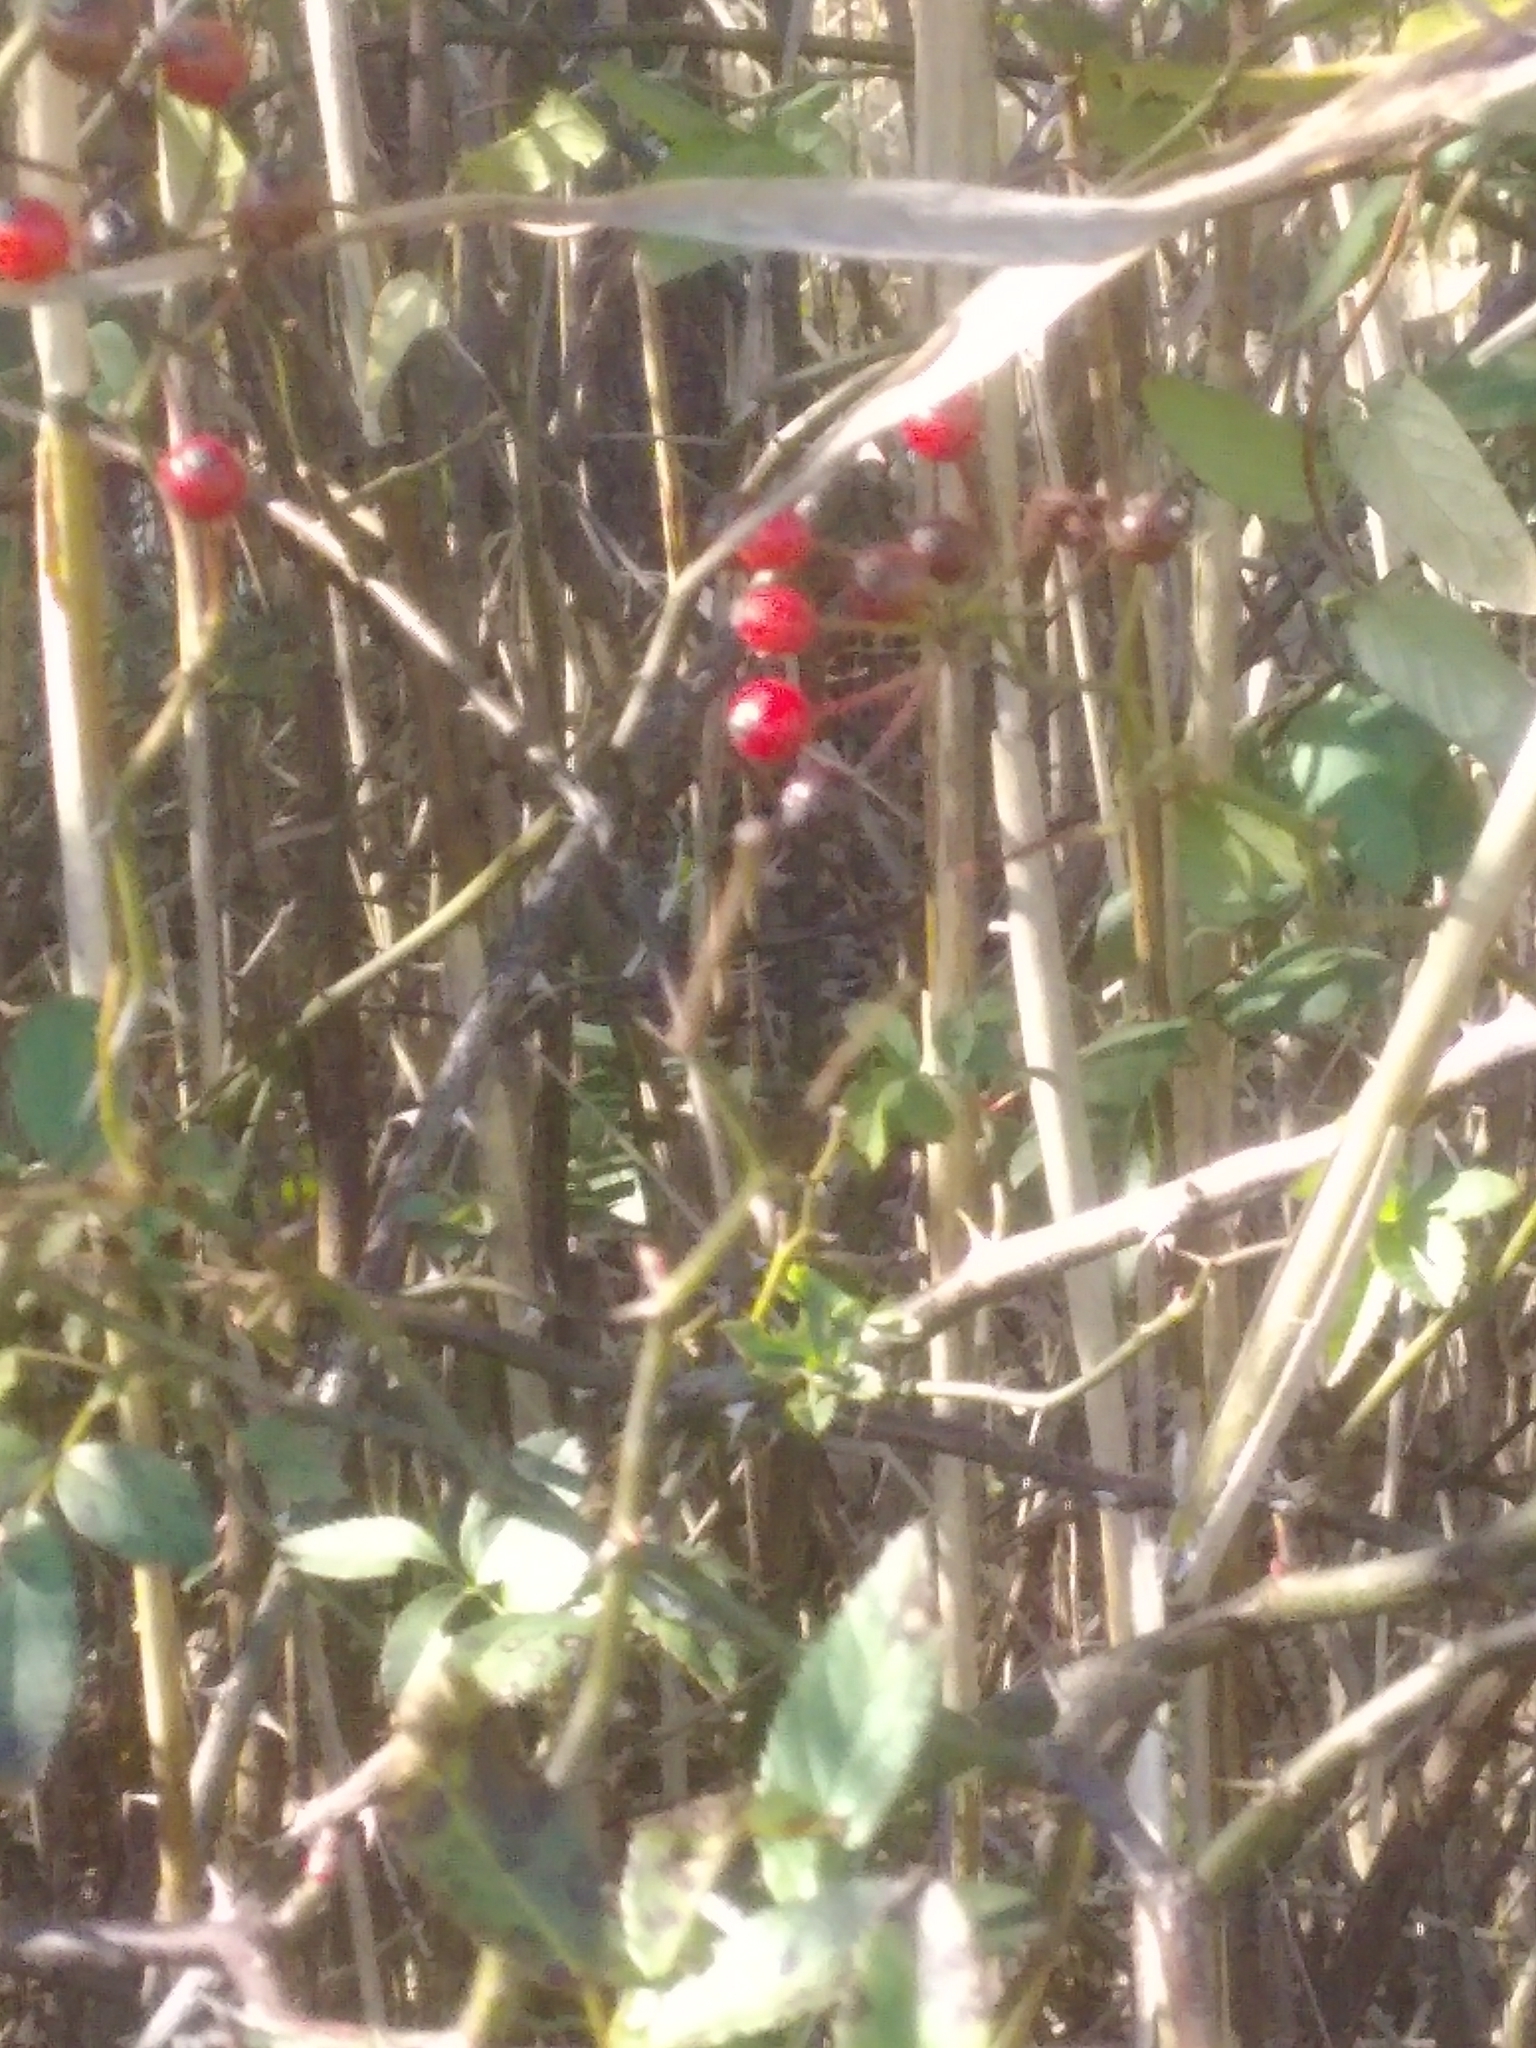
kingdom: Plantae
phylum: Tracheophyta
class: Magnoliopsida
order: Rosales
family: Rosaceae
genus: Rosa
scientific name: Rosa multiflora
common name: Multiflora rose
